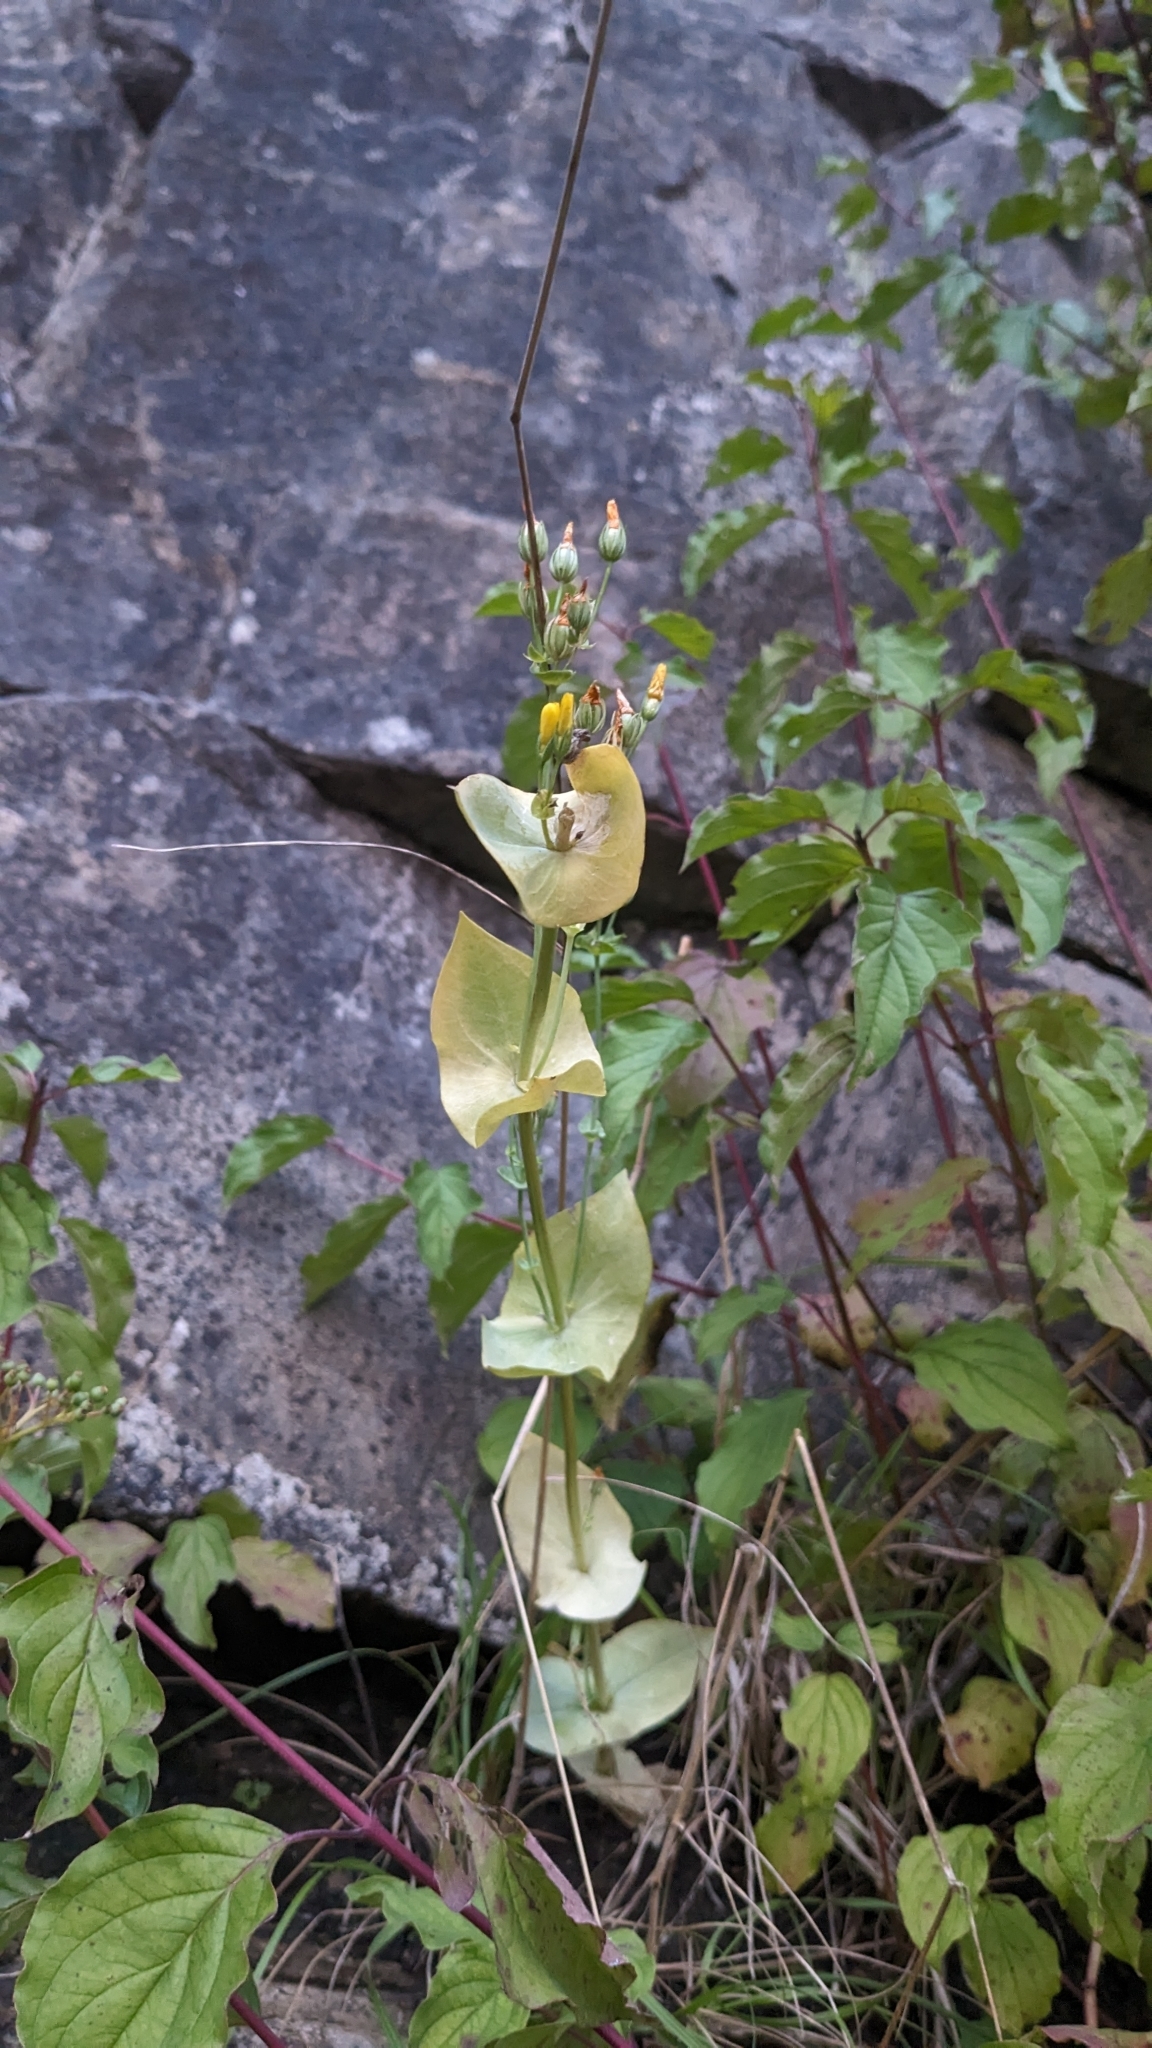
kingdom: Plantae
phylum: Tracheophyta
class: Magnoliopsida
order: Gentianales
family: Gentianaceae
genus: Blackstonia
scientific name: Blackstonia perfoliata
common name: Yellow-wort
